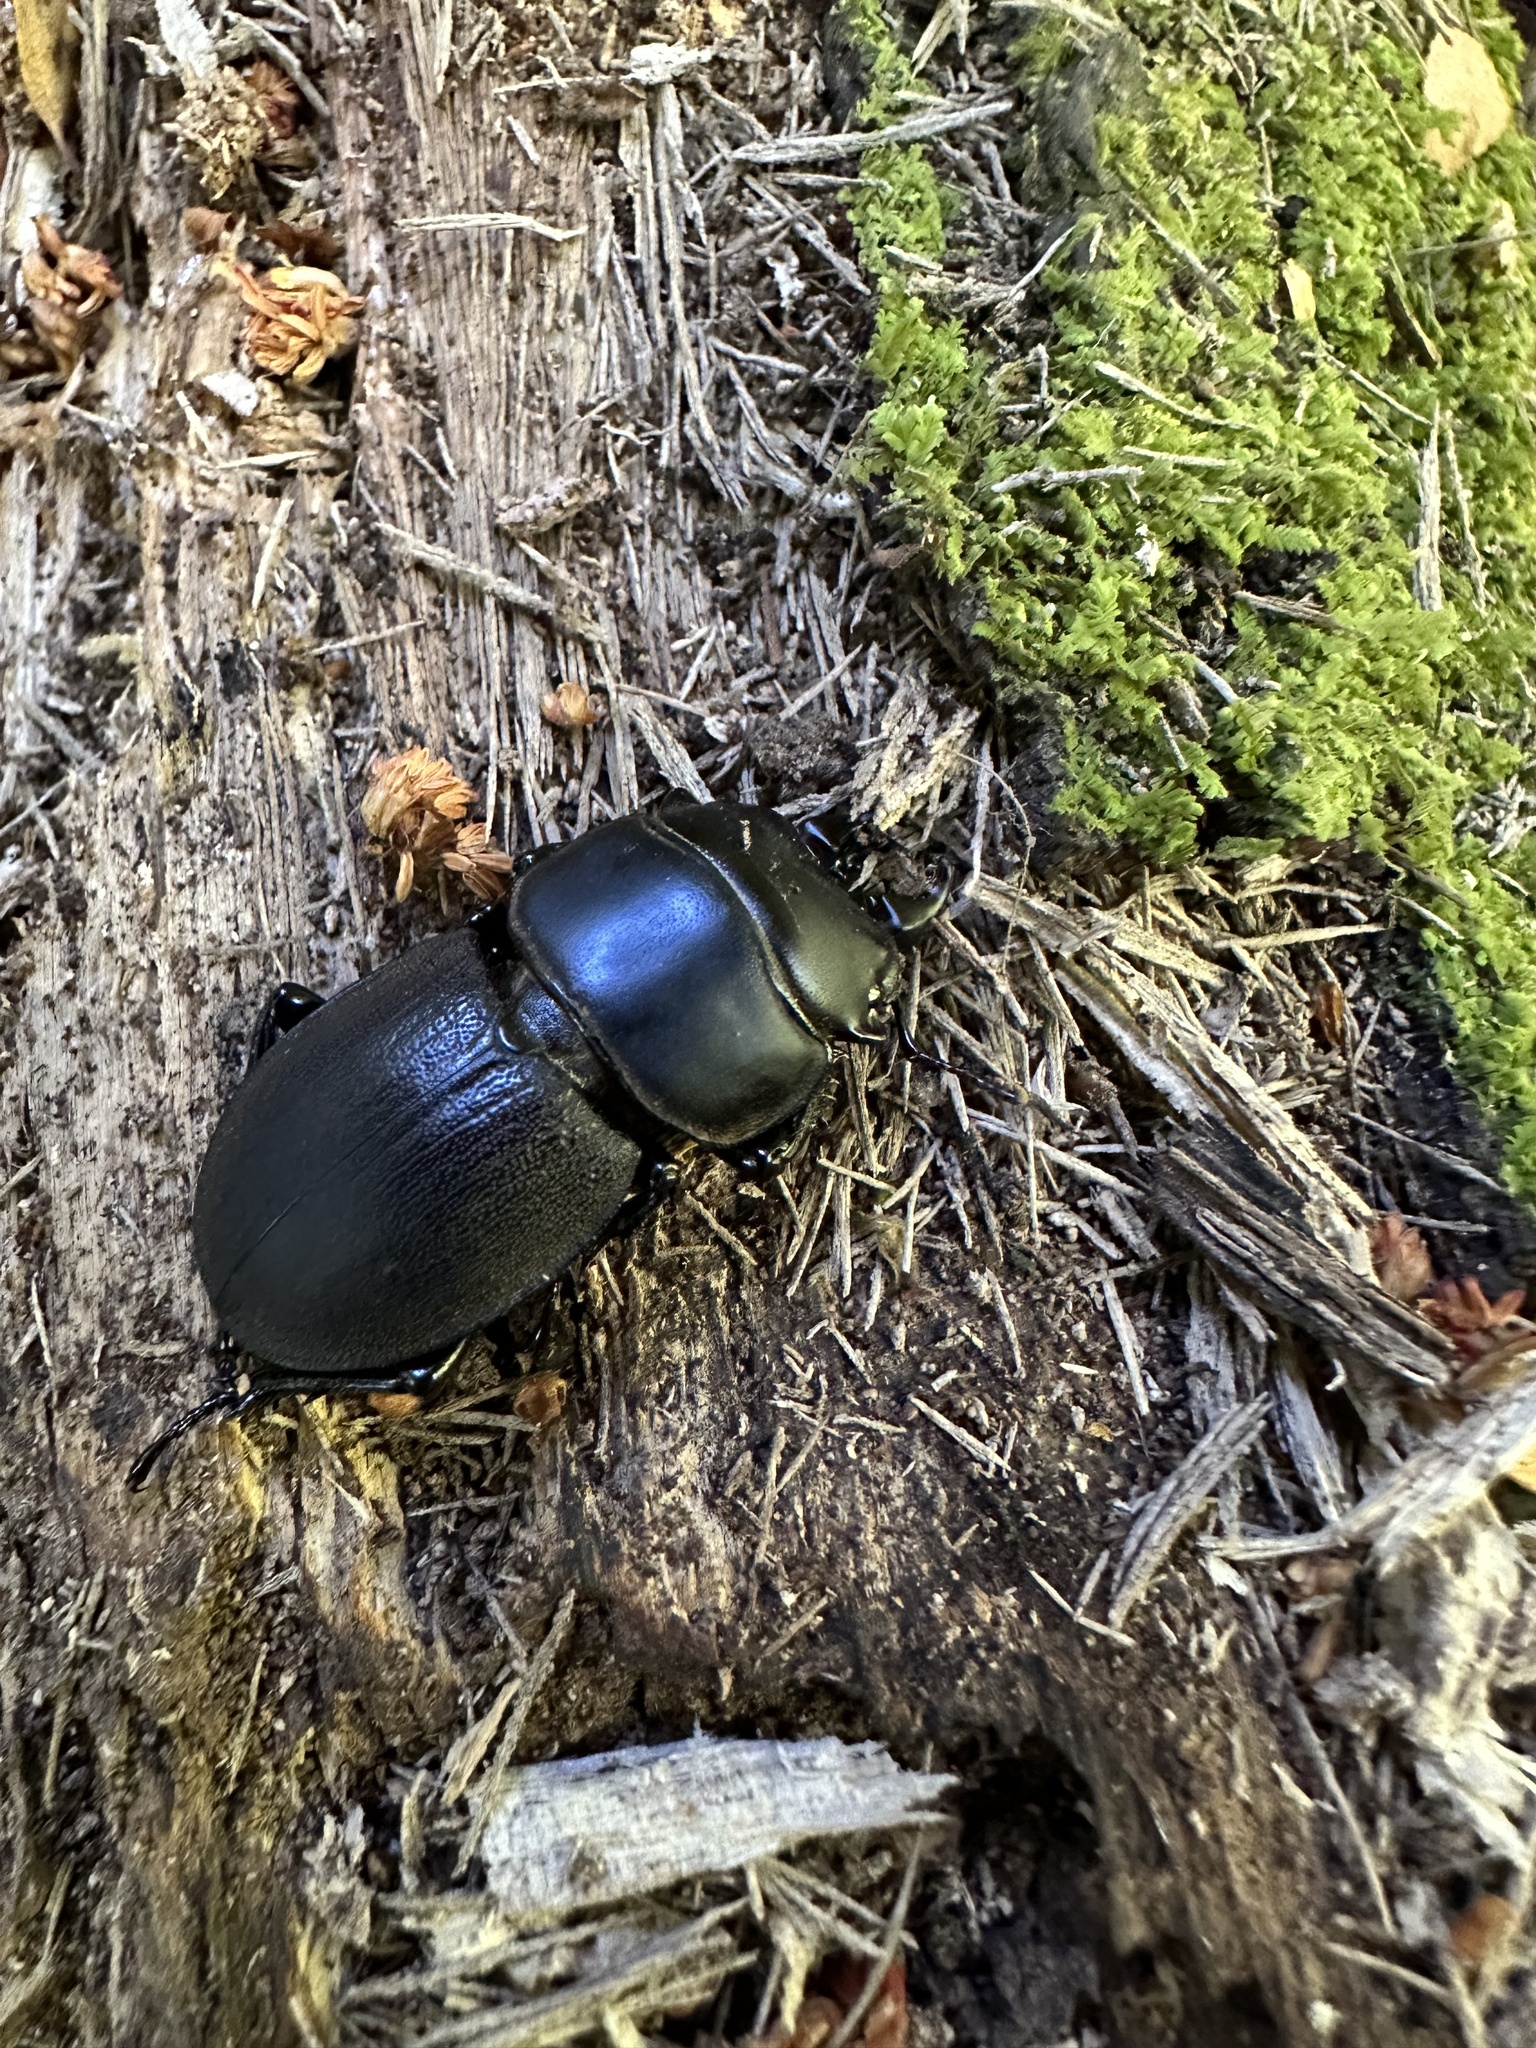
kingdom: Animalia
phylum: Arthropoda
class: Insecta
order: Coleoptera
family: Lucanidae
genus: Apterodorcus
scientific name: Apterodorcus bacchus
